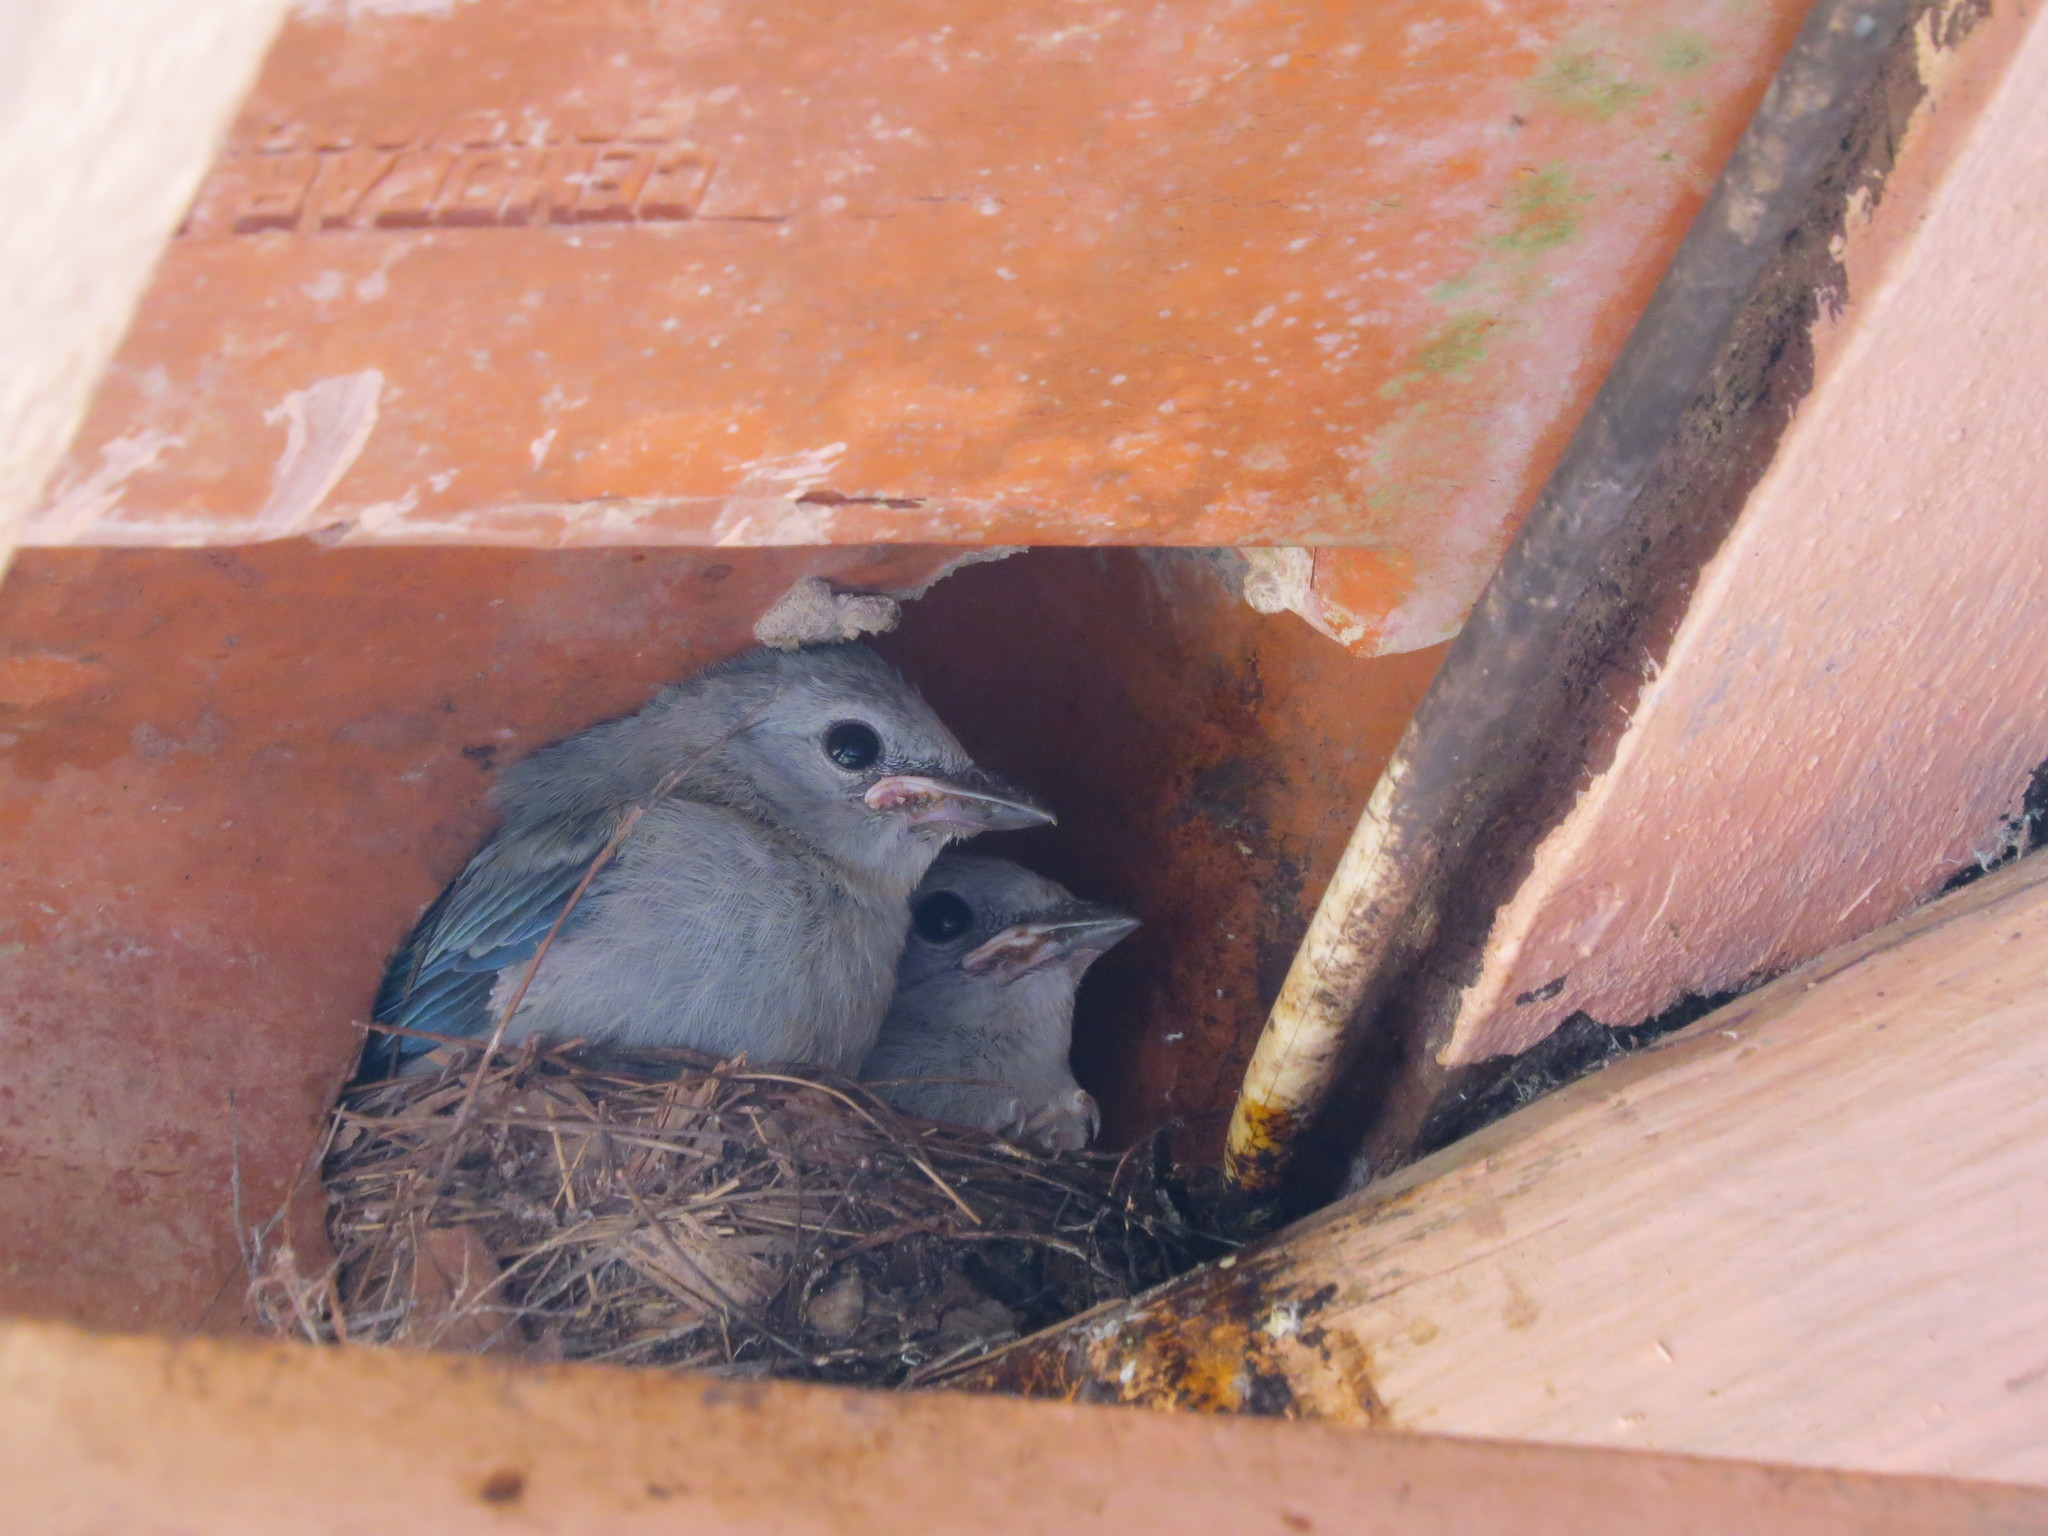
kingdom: Animalia
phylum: Chordata
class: Aves
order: Passeriformes
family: Thraupidae
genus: Thraupis
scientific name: Thraupis episcopus
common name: Blue-grey tanager
